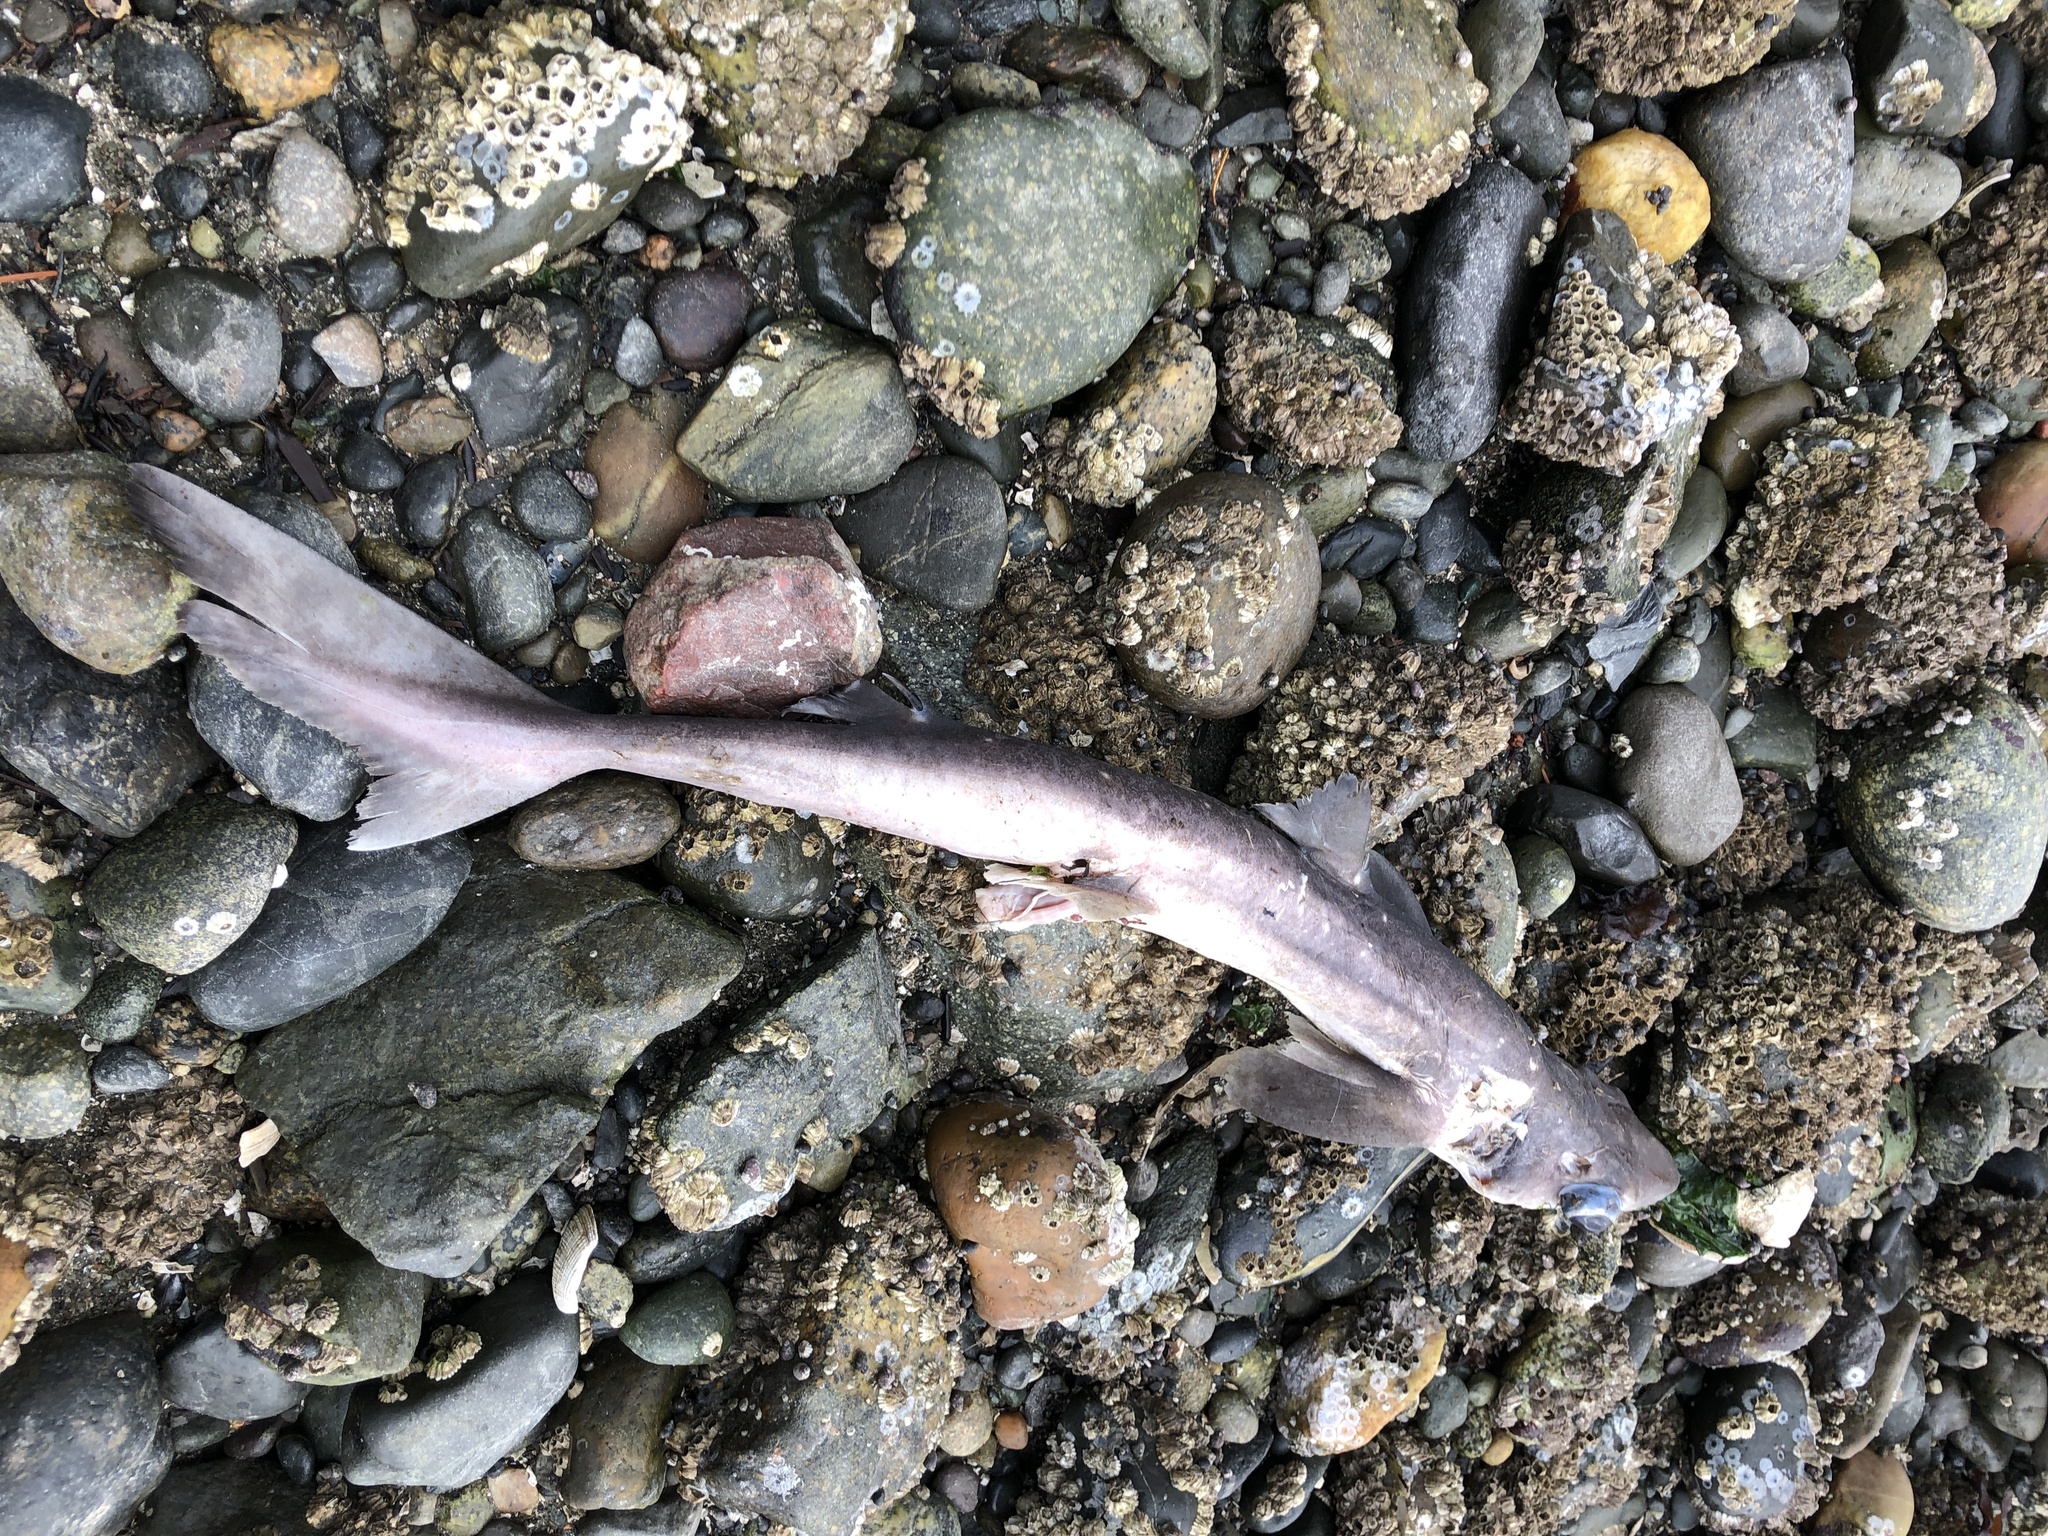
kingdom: Animalia
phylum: Chordata
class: Elasmobranchii
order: Squaliformes
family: Squalidae
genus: Squalus
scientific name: Squalus suckleyi
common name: Spiny dogfish
